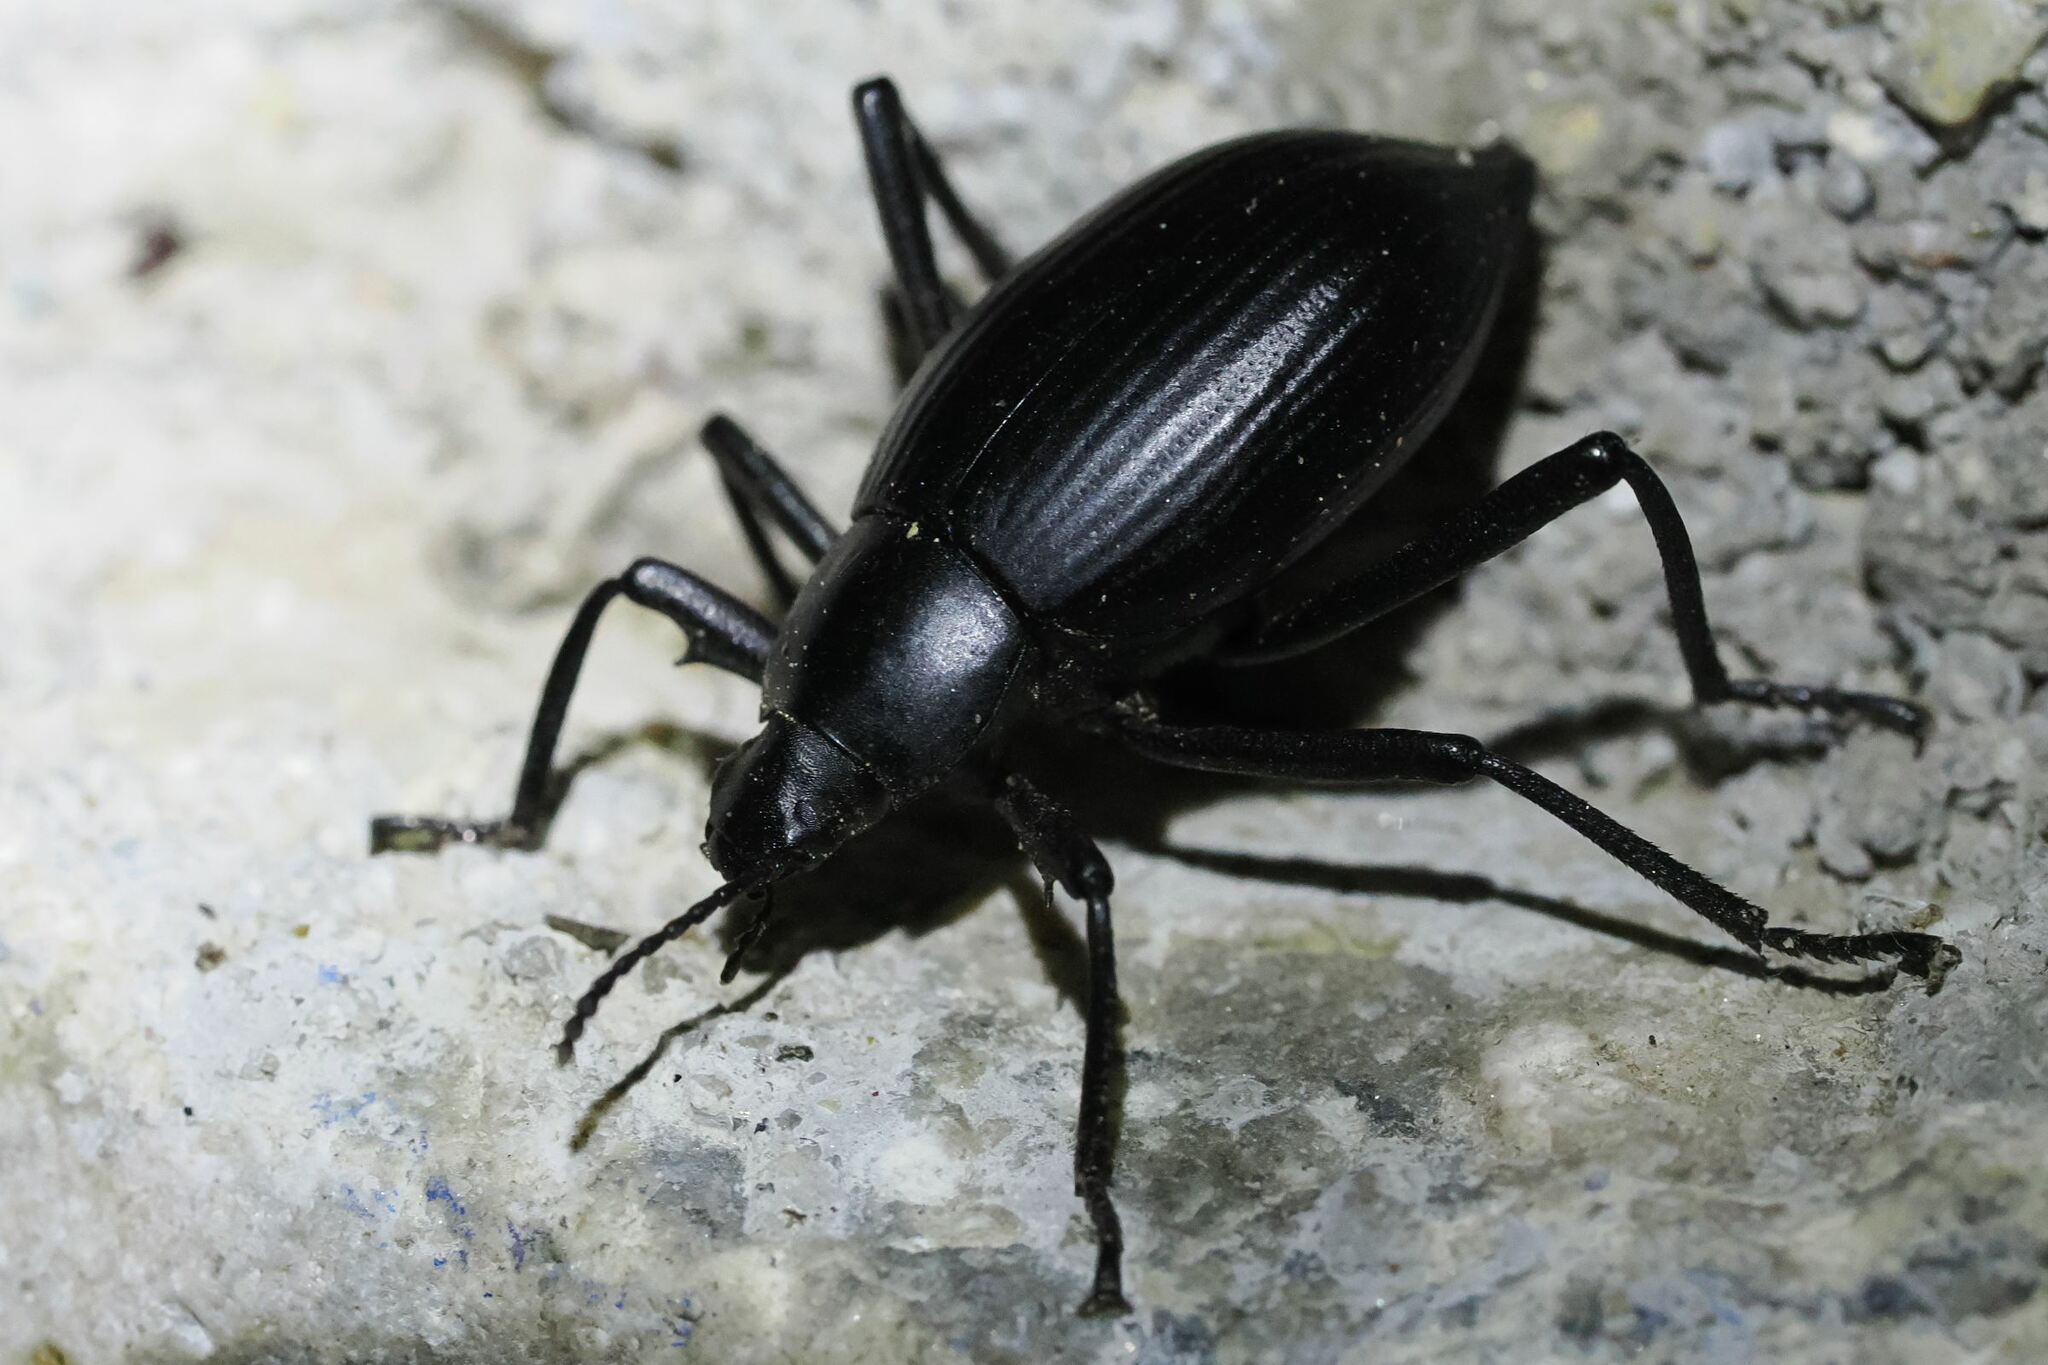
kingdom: Animalia
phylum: Arthropoda
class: Insecta
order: Coleoptera
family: Tenebrionidae
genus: Eleodes
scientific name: Eleodes mexicana
